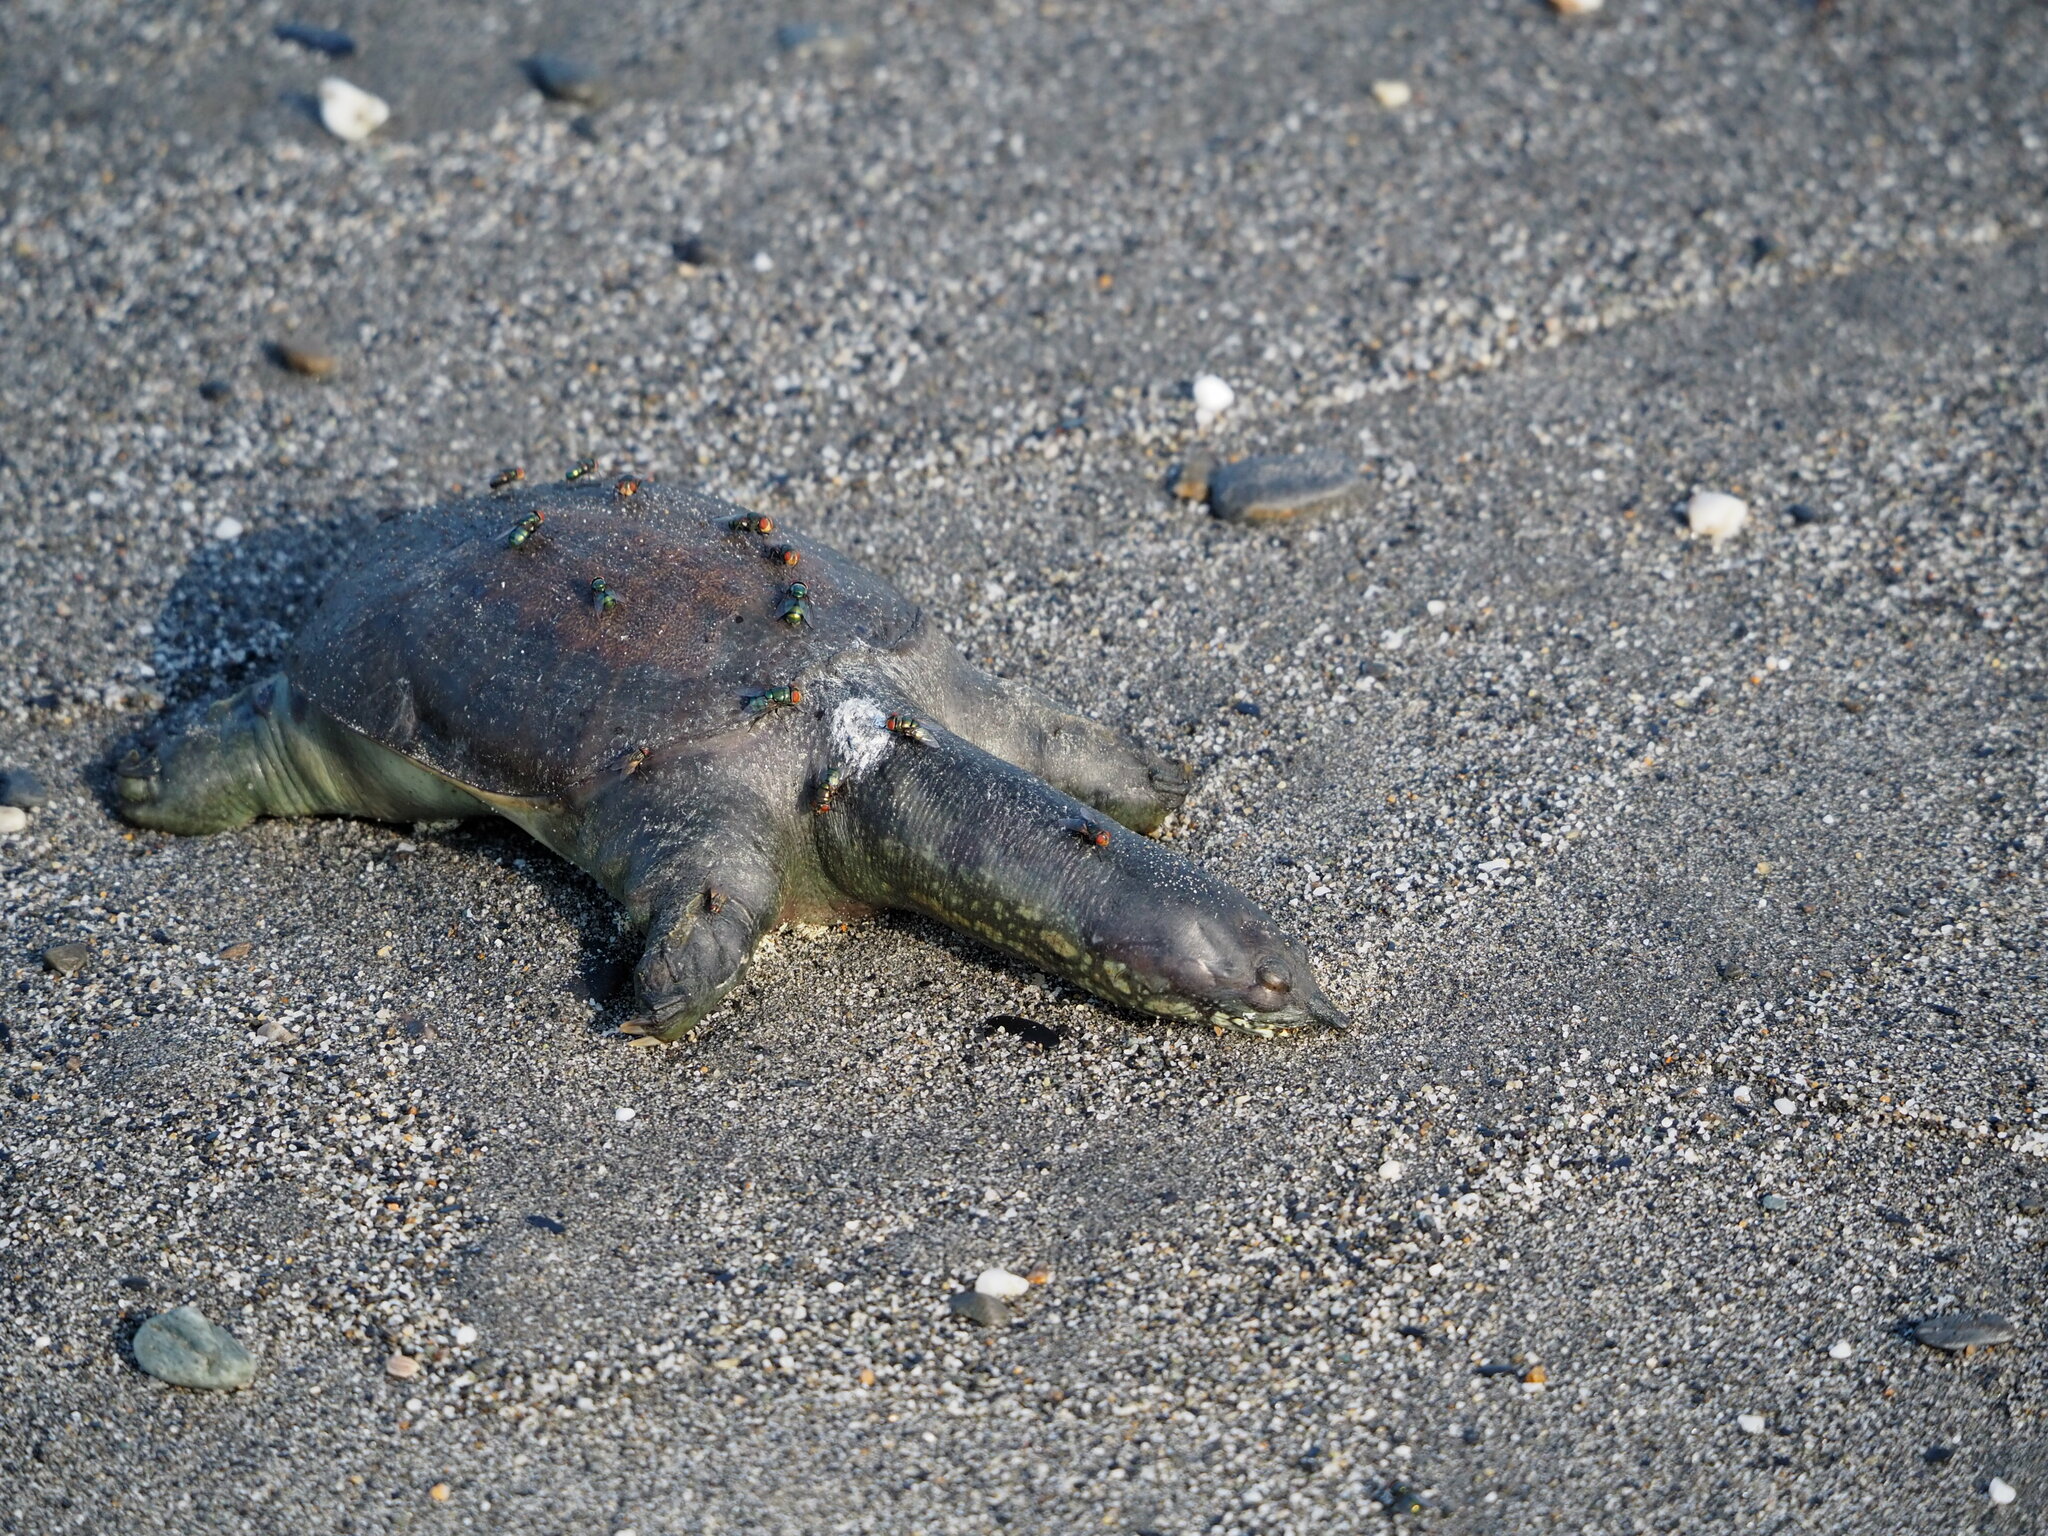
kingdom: Animalia
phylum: Chordata
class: Testudines
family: Trionychidae
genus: Pelodiscus
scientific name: Pelodiscus sinensis
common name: Chinese softshell turtle
